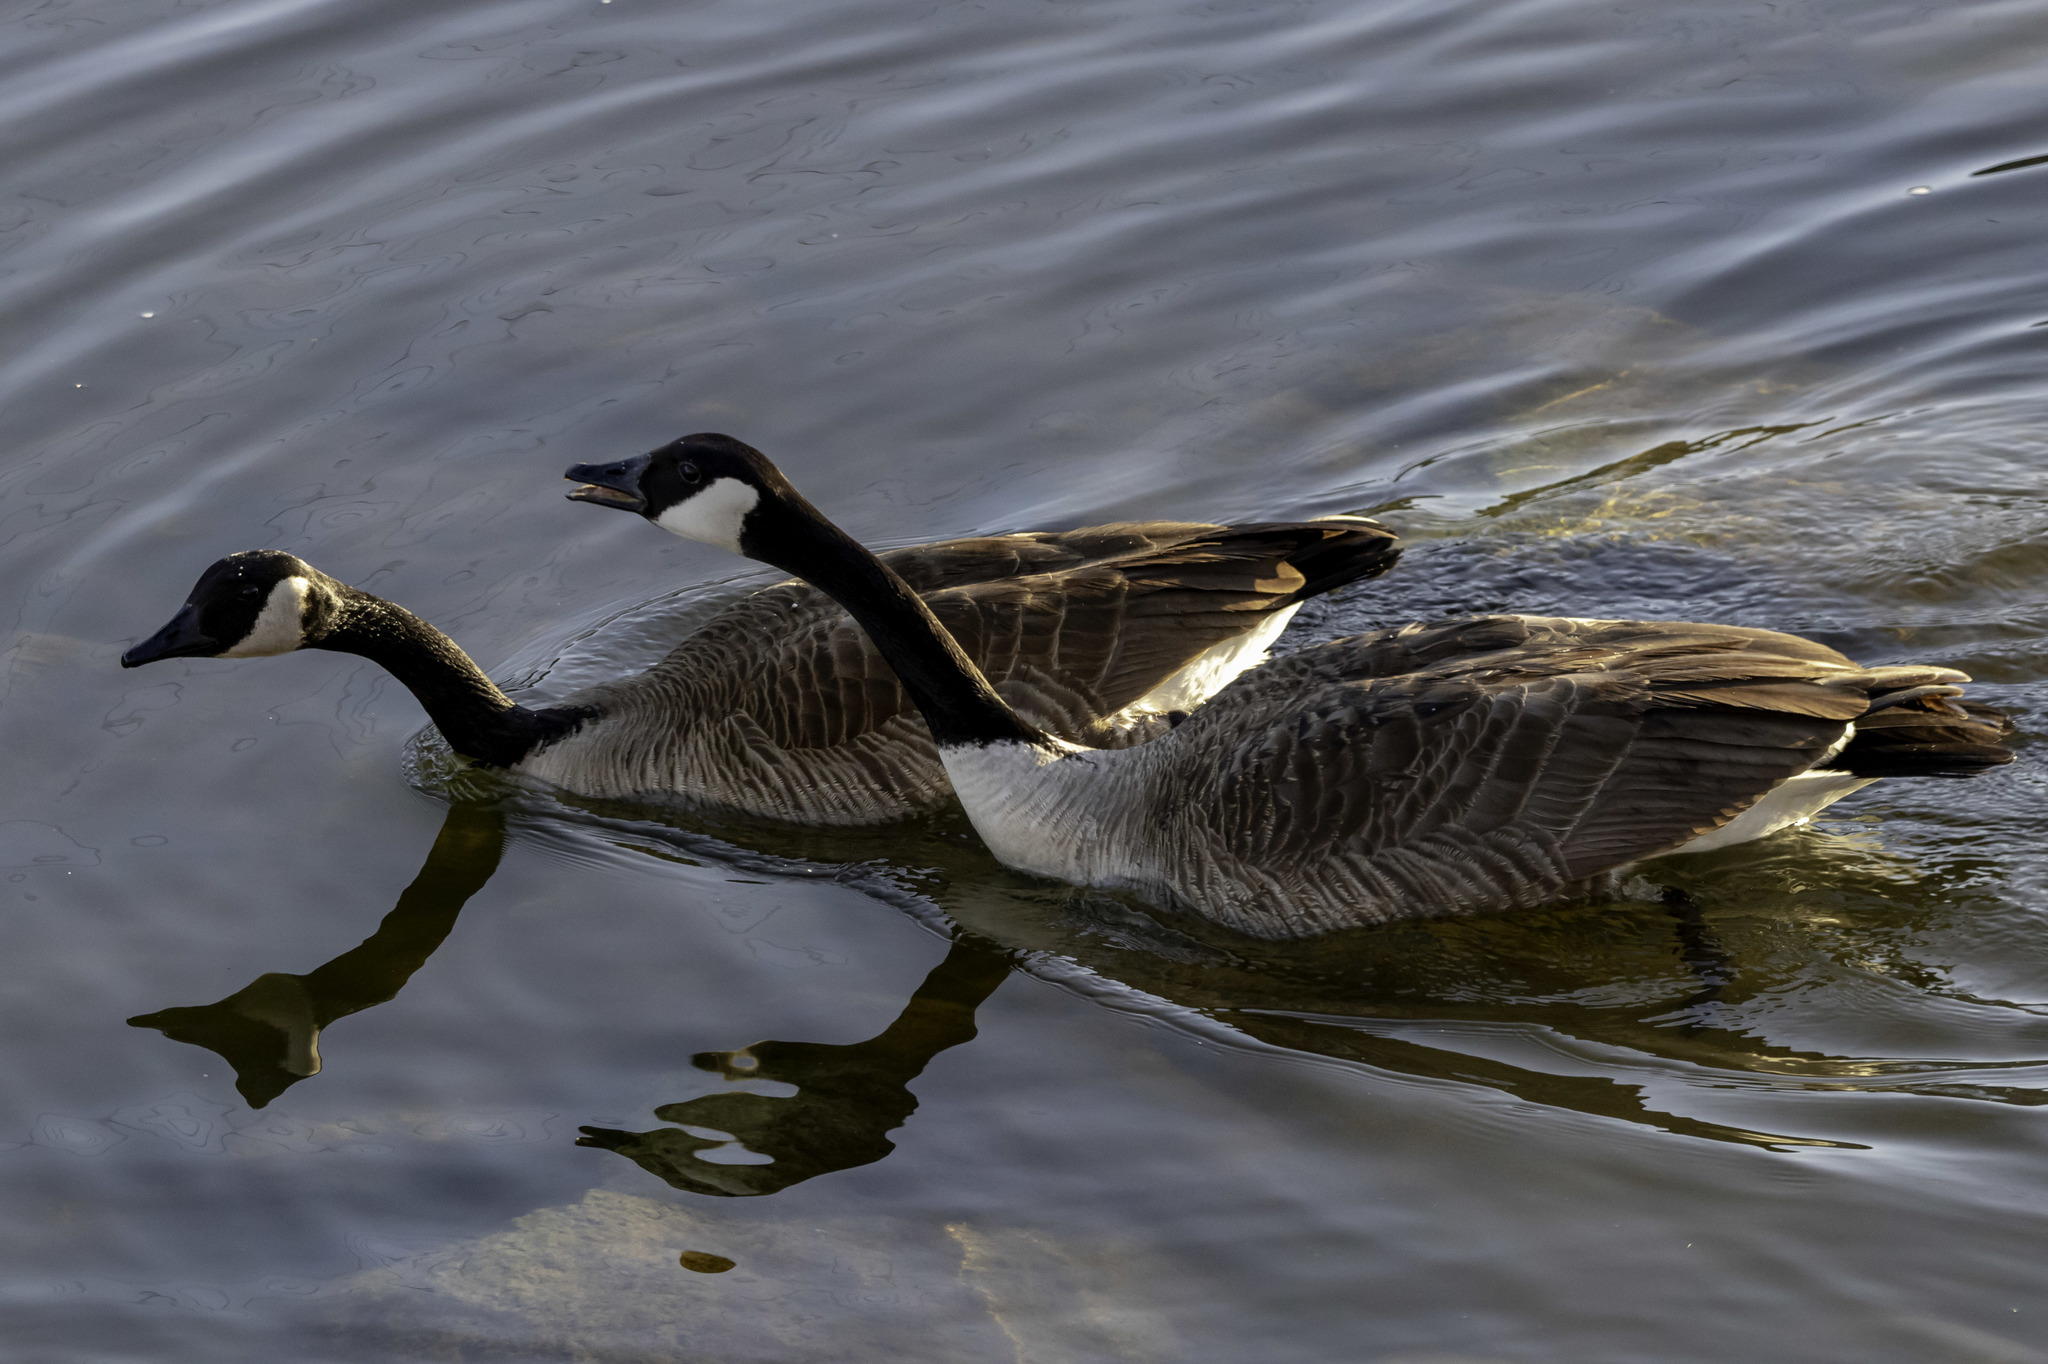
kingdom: Animalia
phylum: Chordata
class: Aves
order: Anseriformes
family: Anatidae
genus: Branta
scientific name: Branta canadensis
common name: Canada goose
